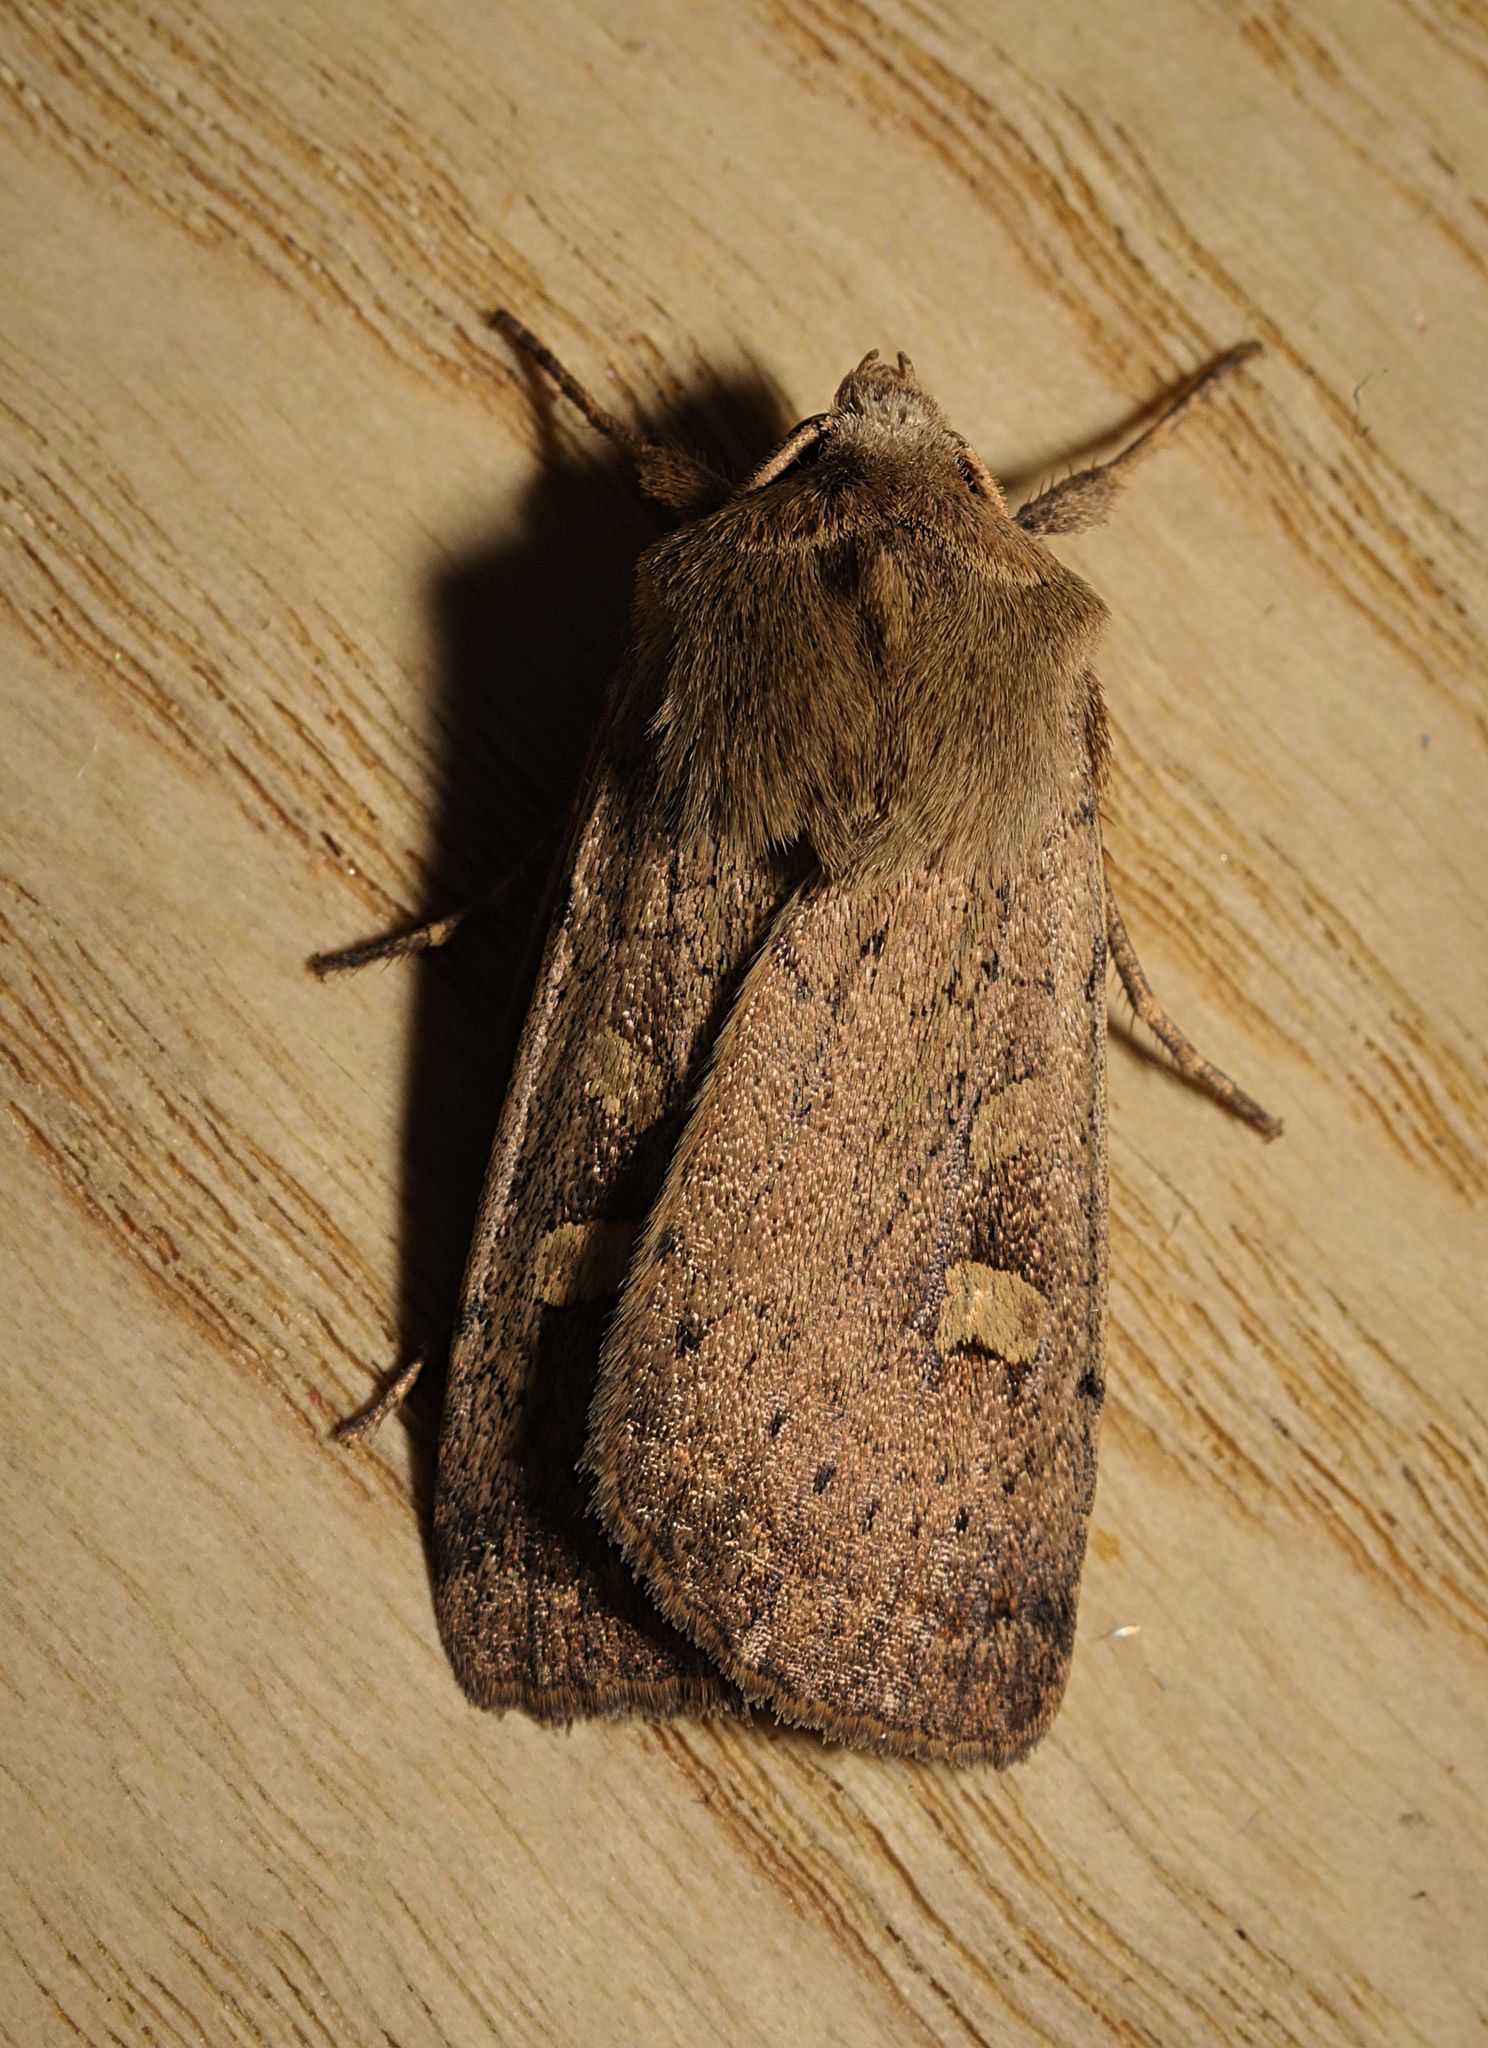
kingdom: Animalia
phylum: Arthropoda
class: Insecta
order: Lepidoptera
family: Noctuidae
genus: Xestia
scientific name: Xestia xanthographa
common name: Square-spot rustic
